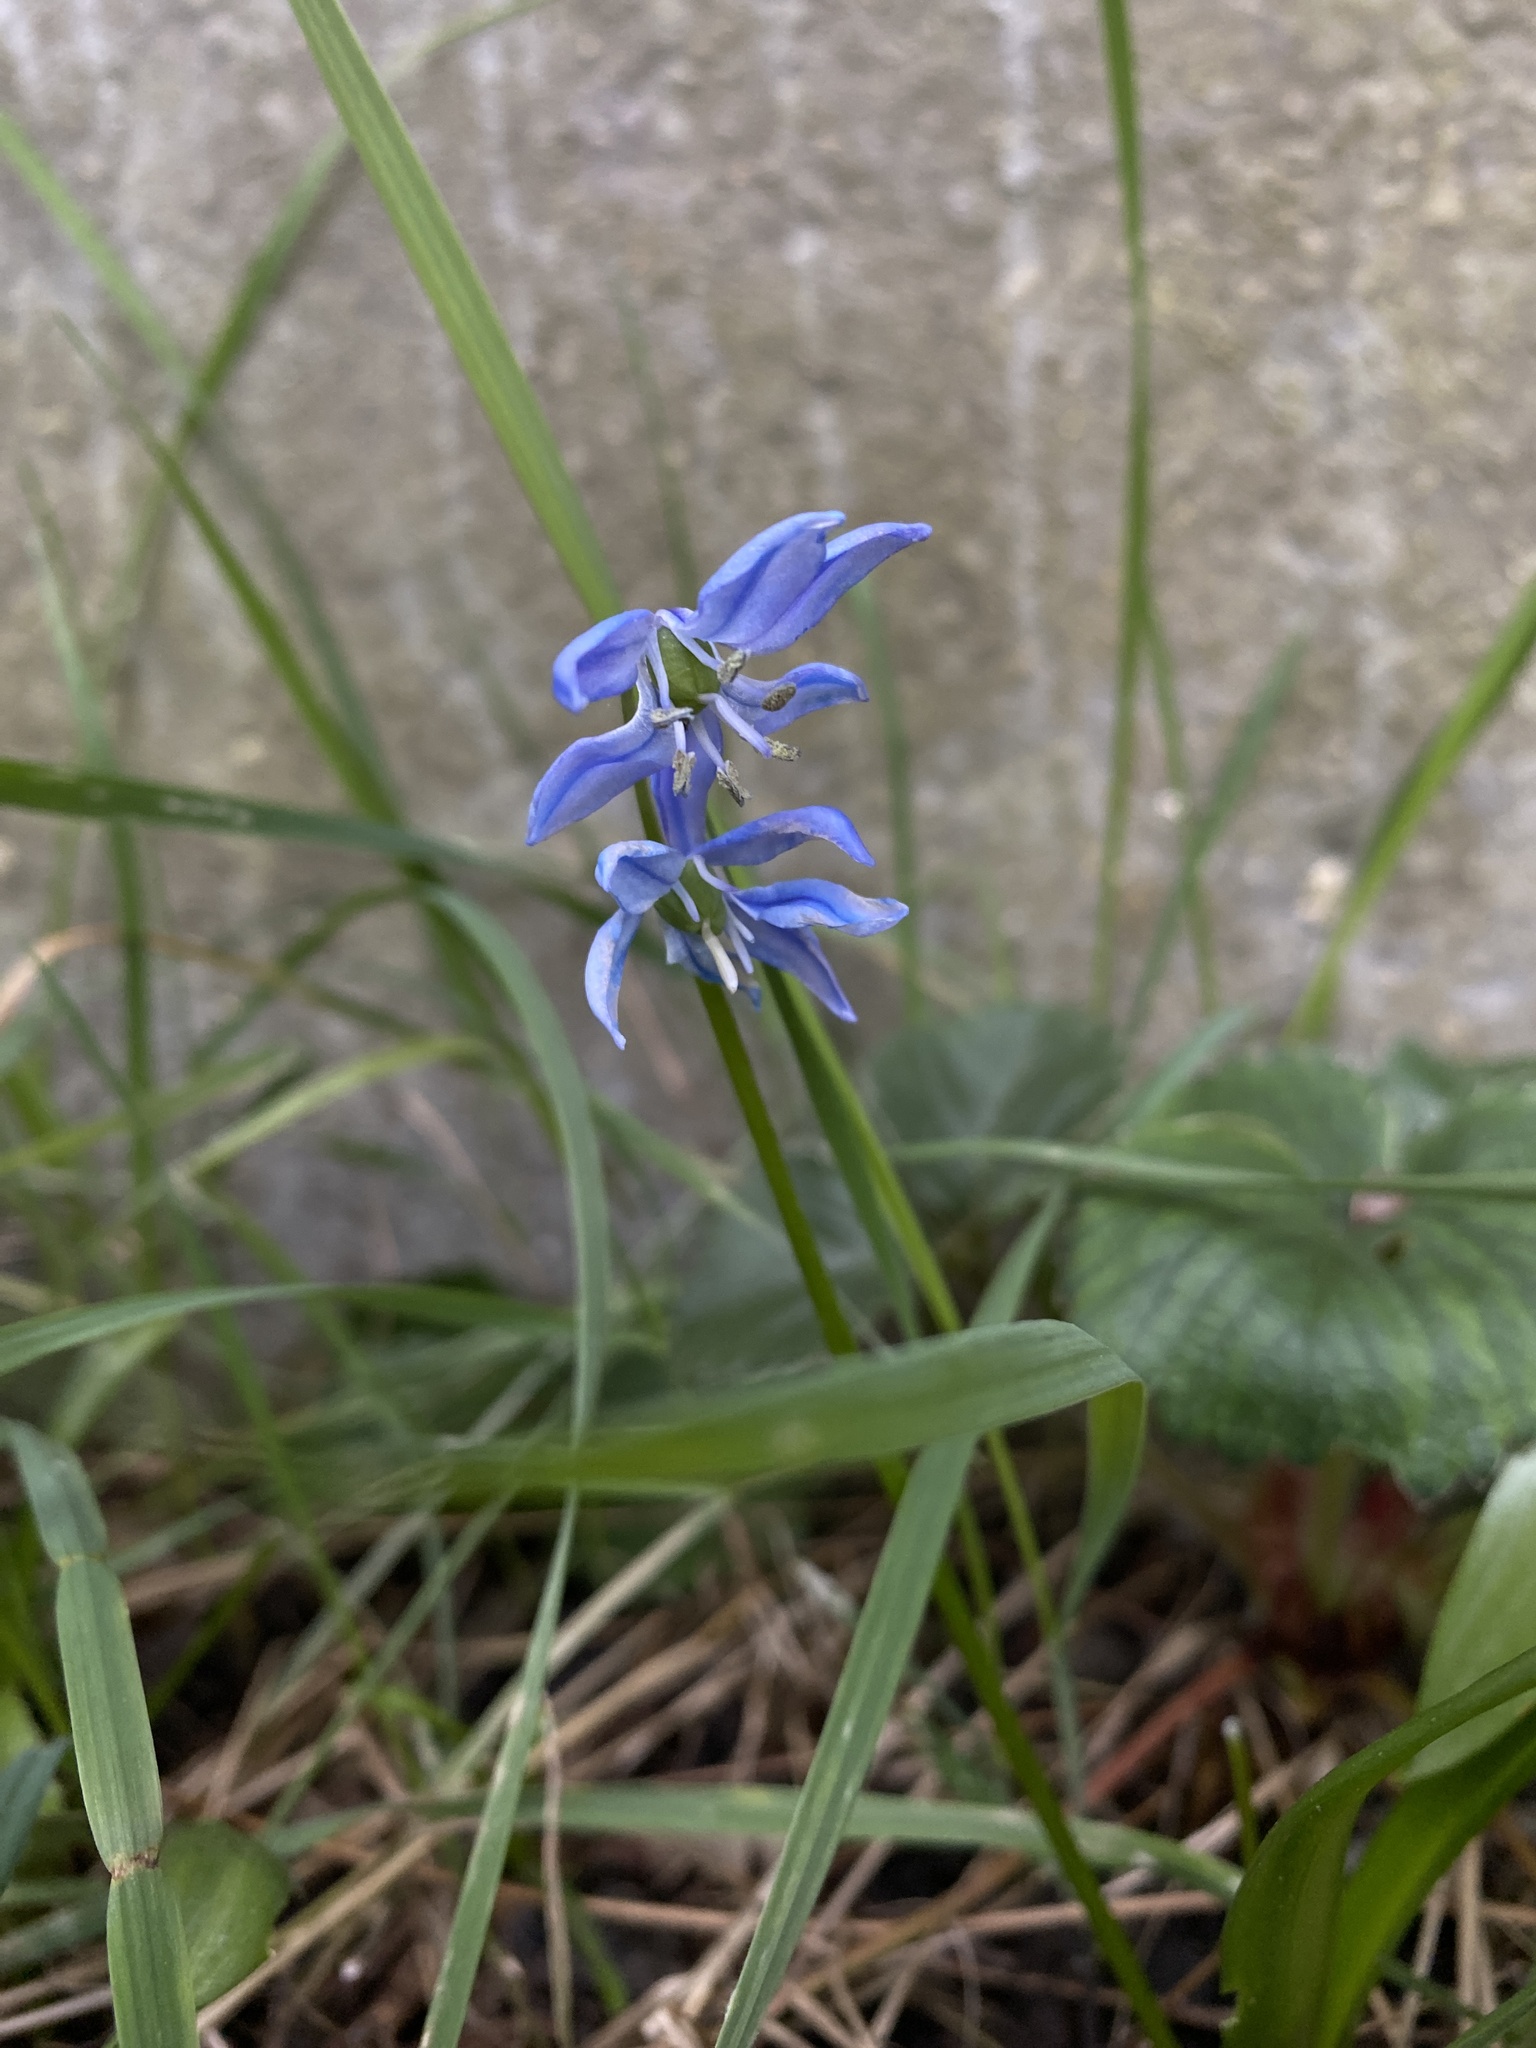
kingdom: Plantae
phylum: Tracheophyta
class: Liliopsida
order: Asparagales
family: Asparagaceae
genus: Scilla
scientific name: Scilla siberica
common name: Siberian squill
